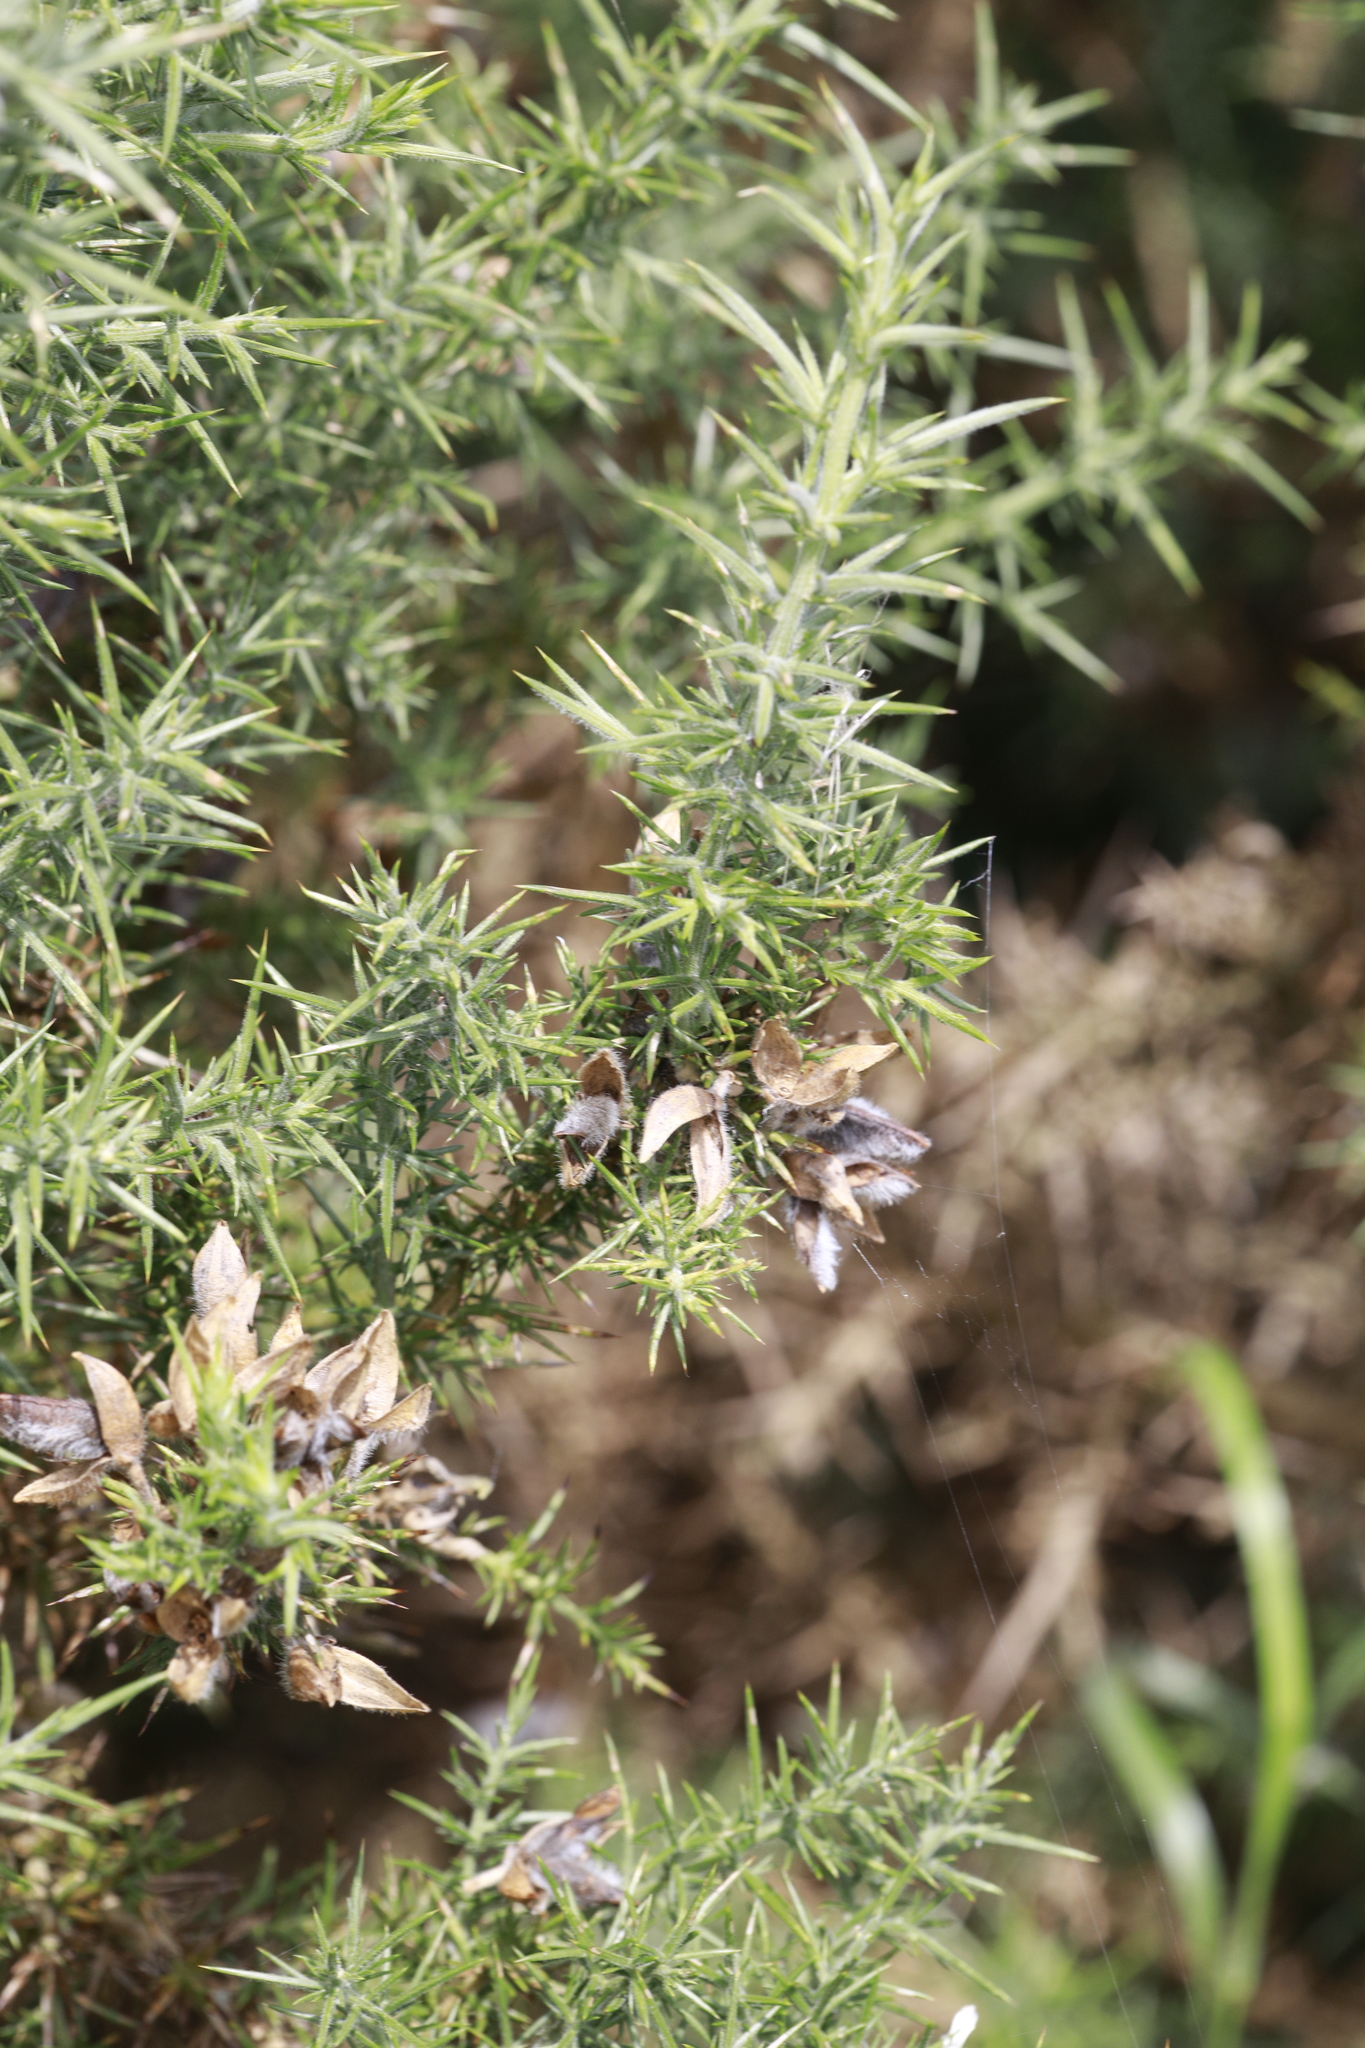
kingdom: Plantae
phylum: Tracheophyta
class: Magnoliopsida
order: Fabales
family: Fabaceae
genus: Ulex
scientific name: Ulex europaeus
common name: Common gorse
